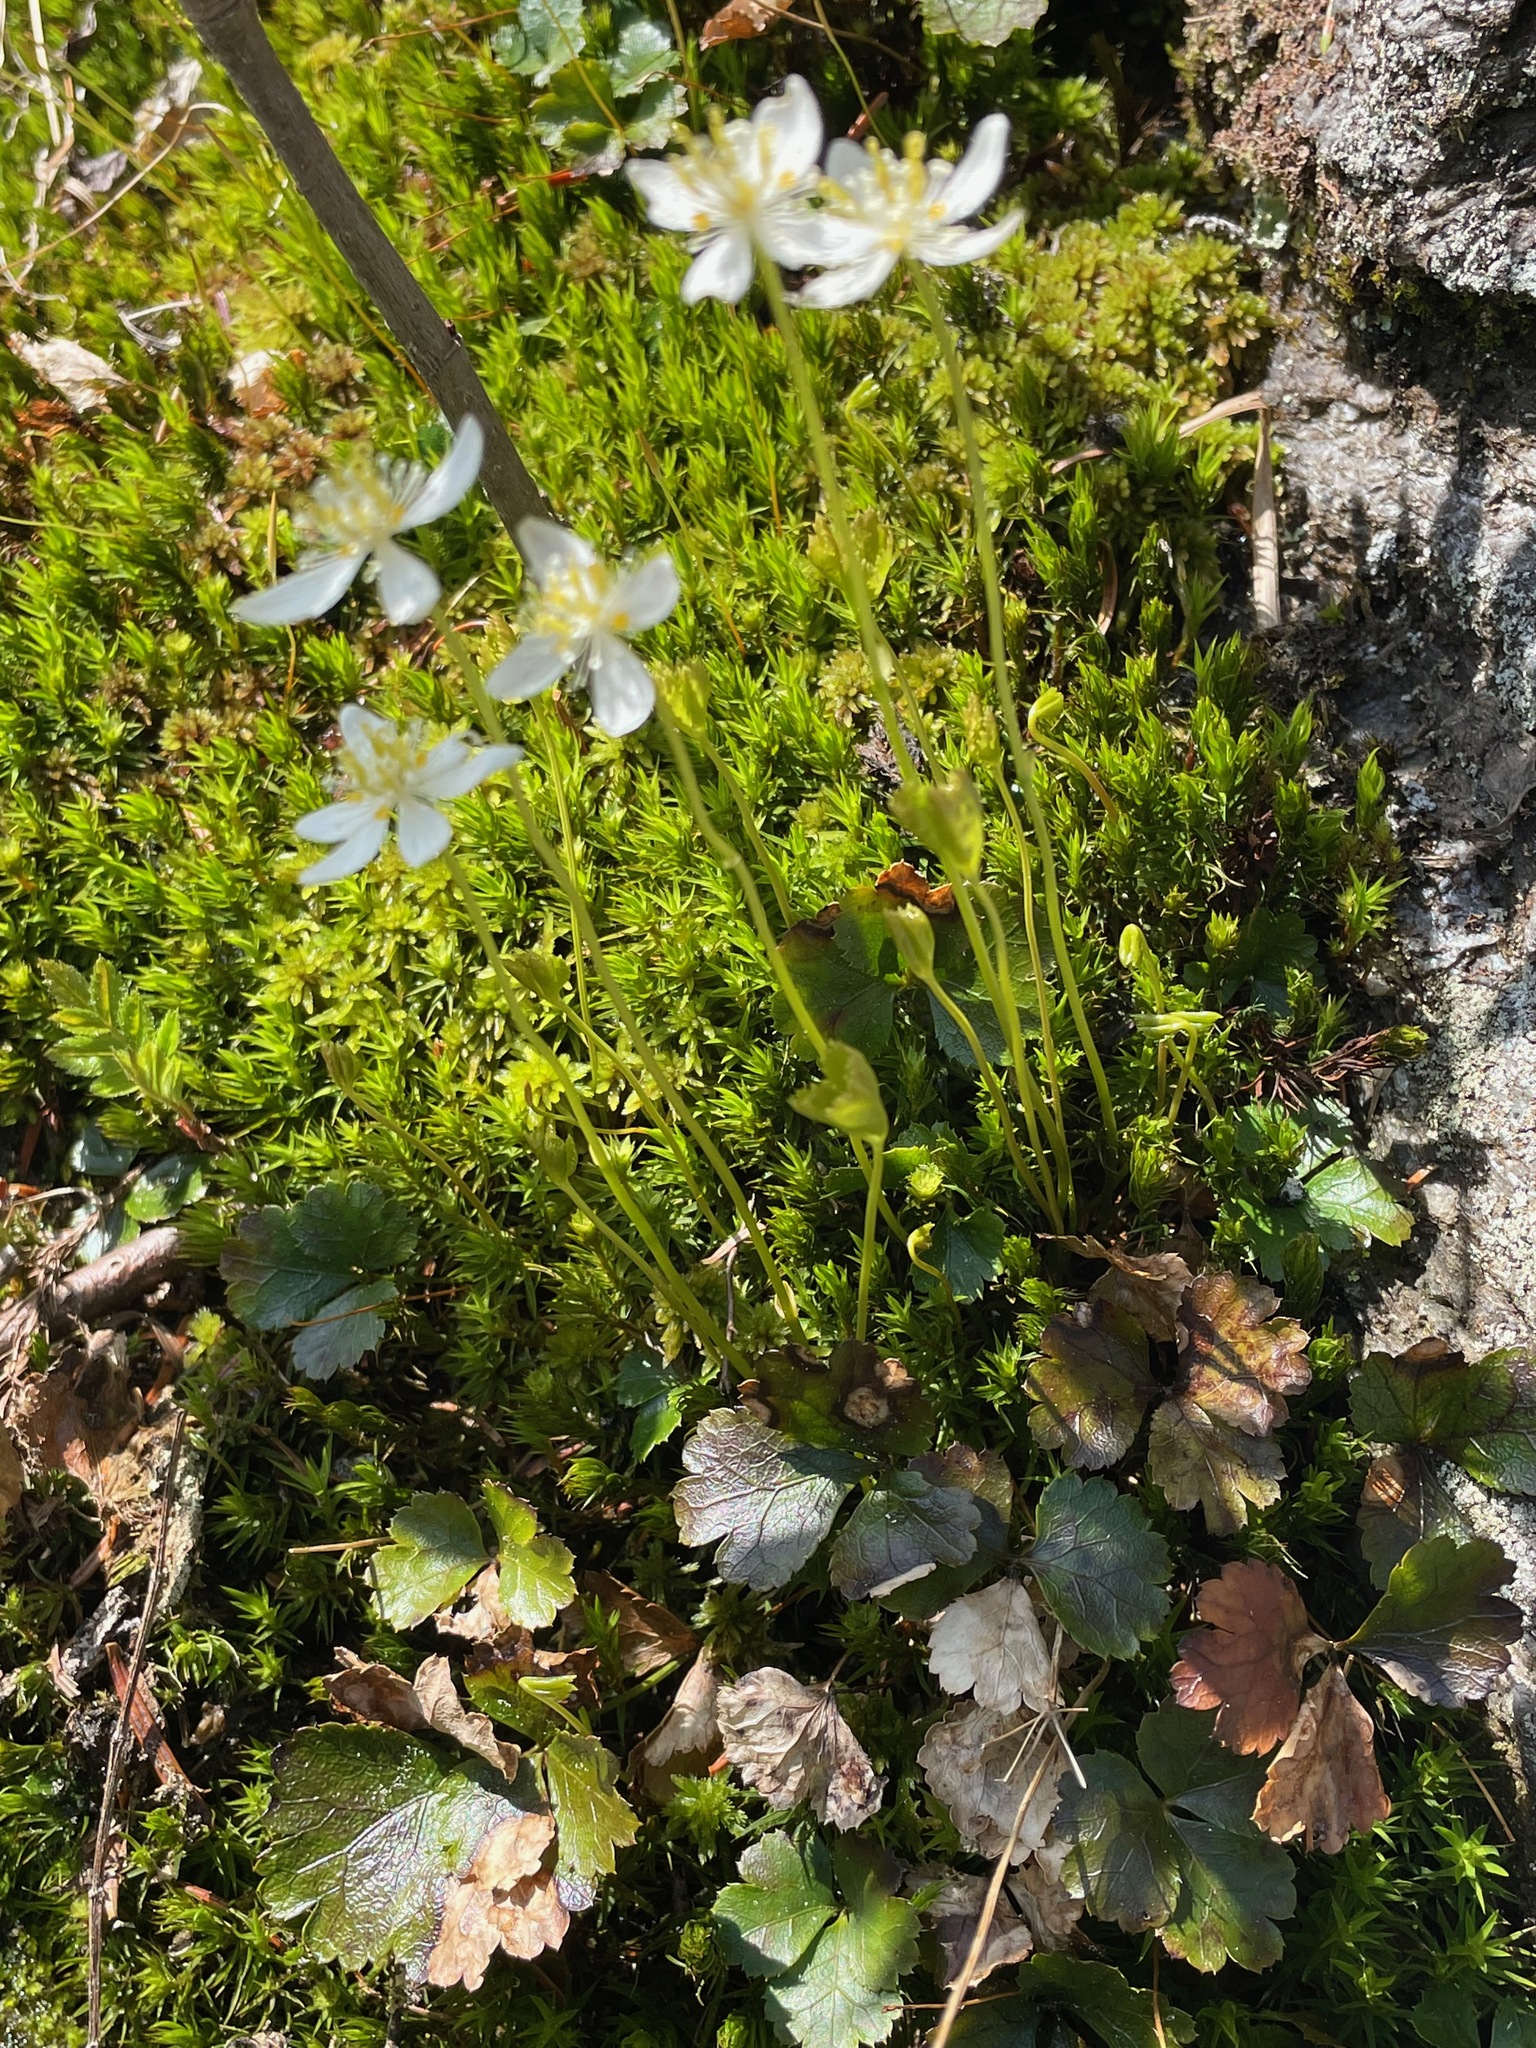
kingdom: Plantae
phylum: Tracheophyta
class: Magnoliopsida
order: Ranunculales
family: Ranunculaceae
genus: Coptis
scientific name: Coptis trifolia
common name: Canker-root
